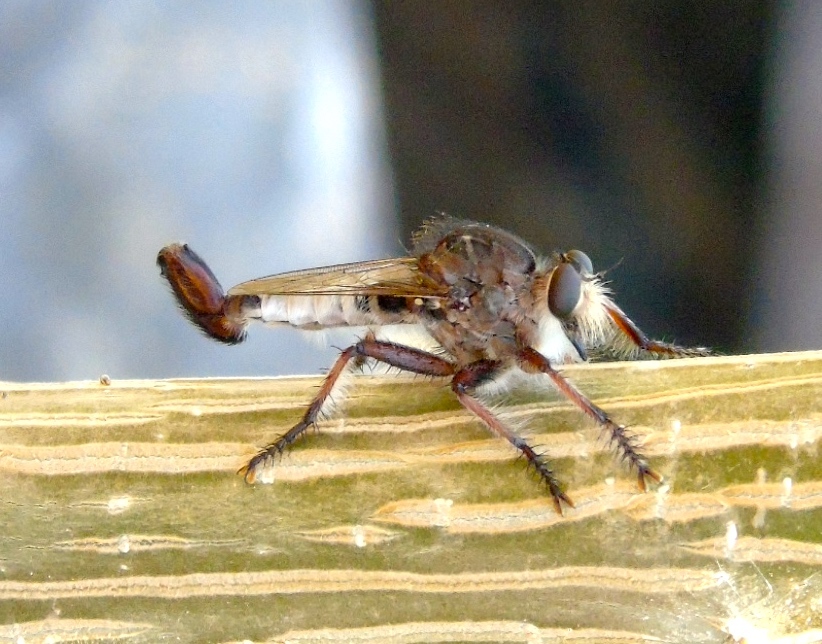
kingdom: Animalia
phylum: Arthropoda
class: Insecta
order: Diptera
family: Asilidae
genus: Efferia
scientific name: Efferia
